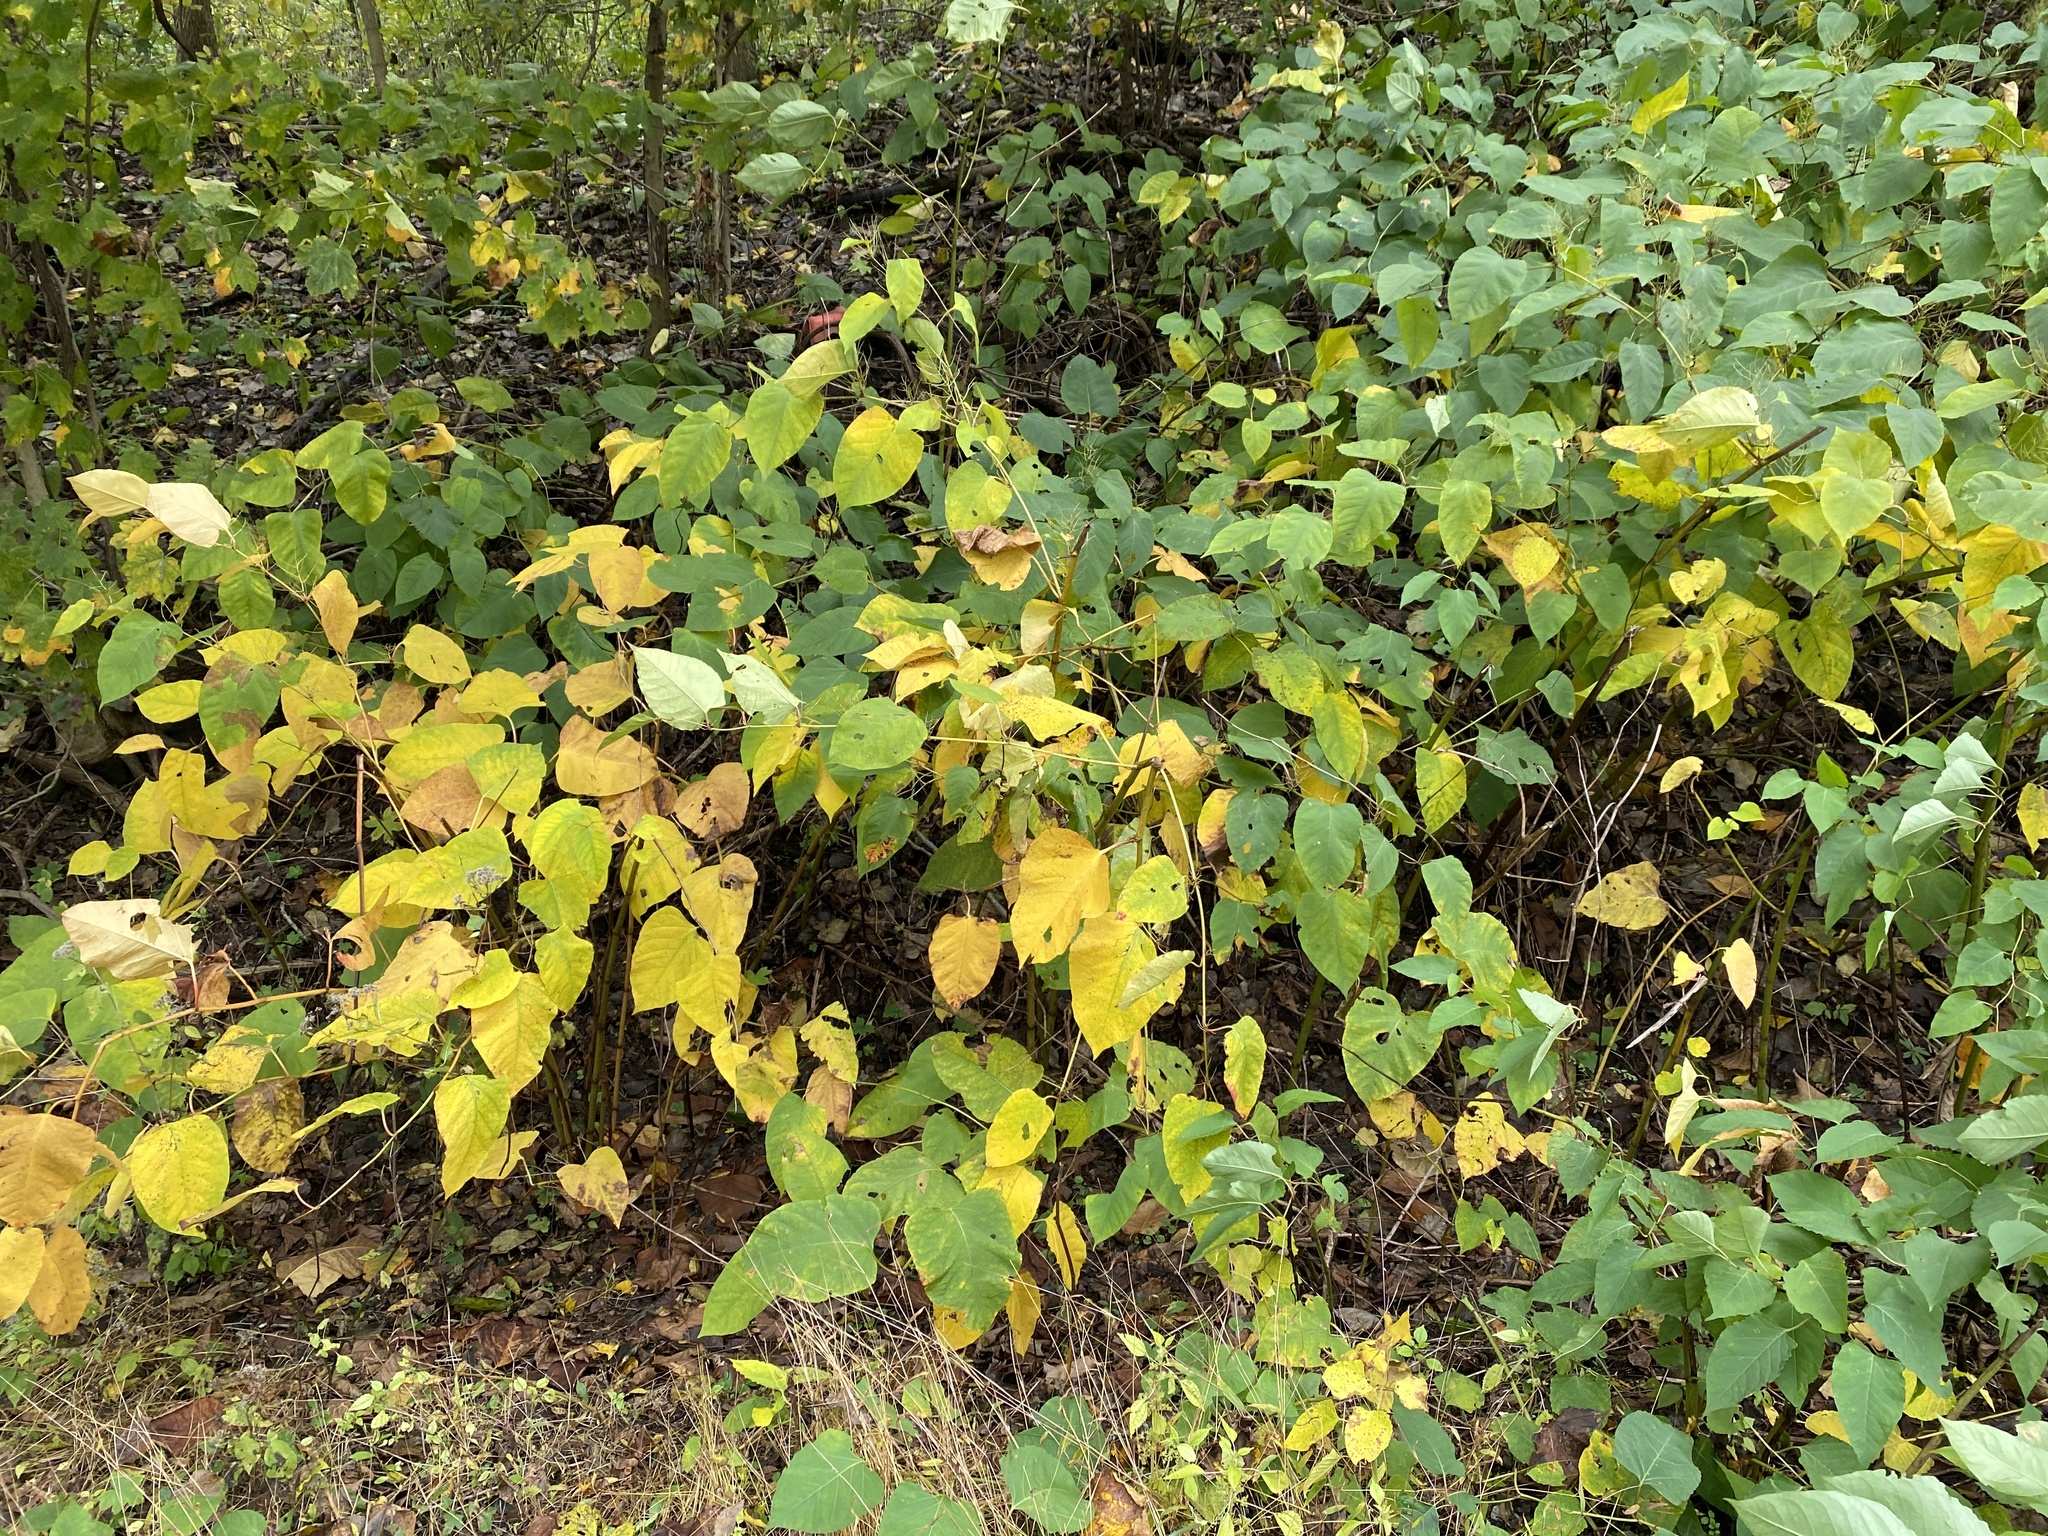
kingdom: Plantae
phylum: Tracheophyta
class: Magnoliopsida
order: Caryophyllales
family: Polygonaceae
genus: Reynoutria
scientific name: Reynoutria bohemica
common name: Bohemian knotweed
